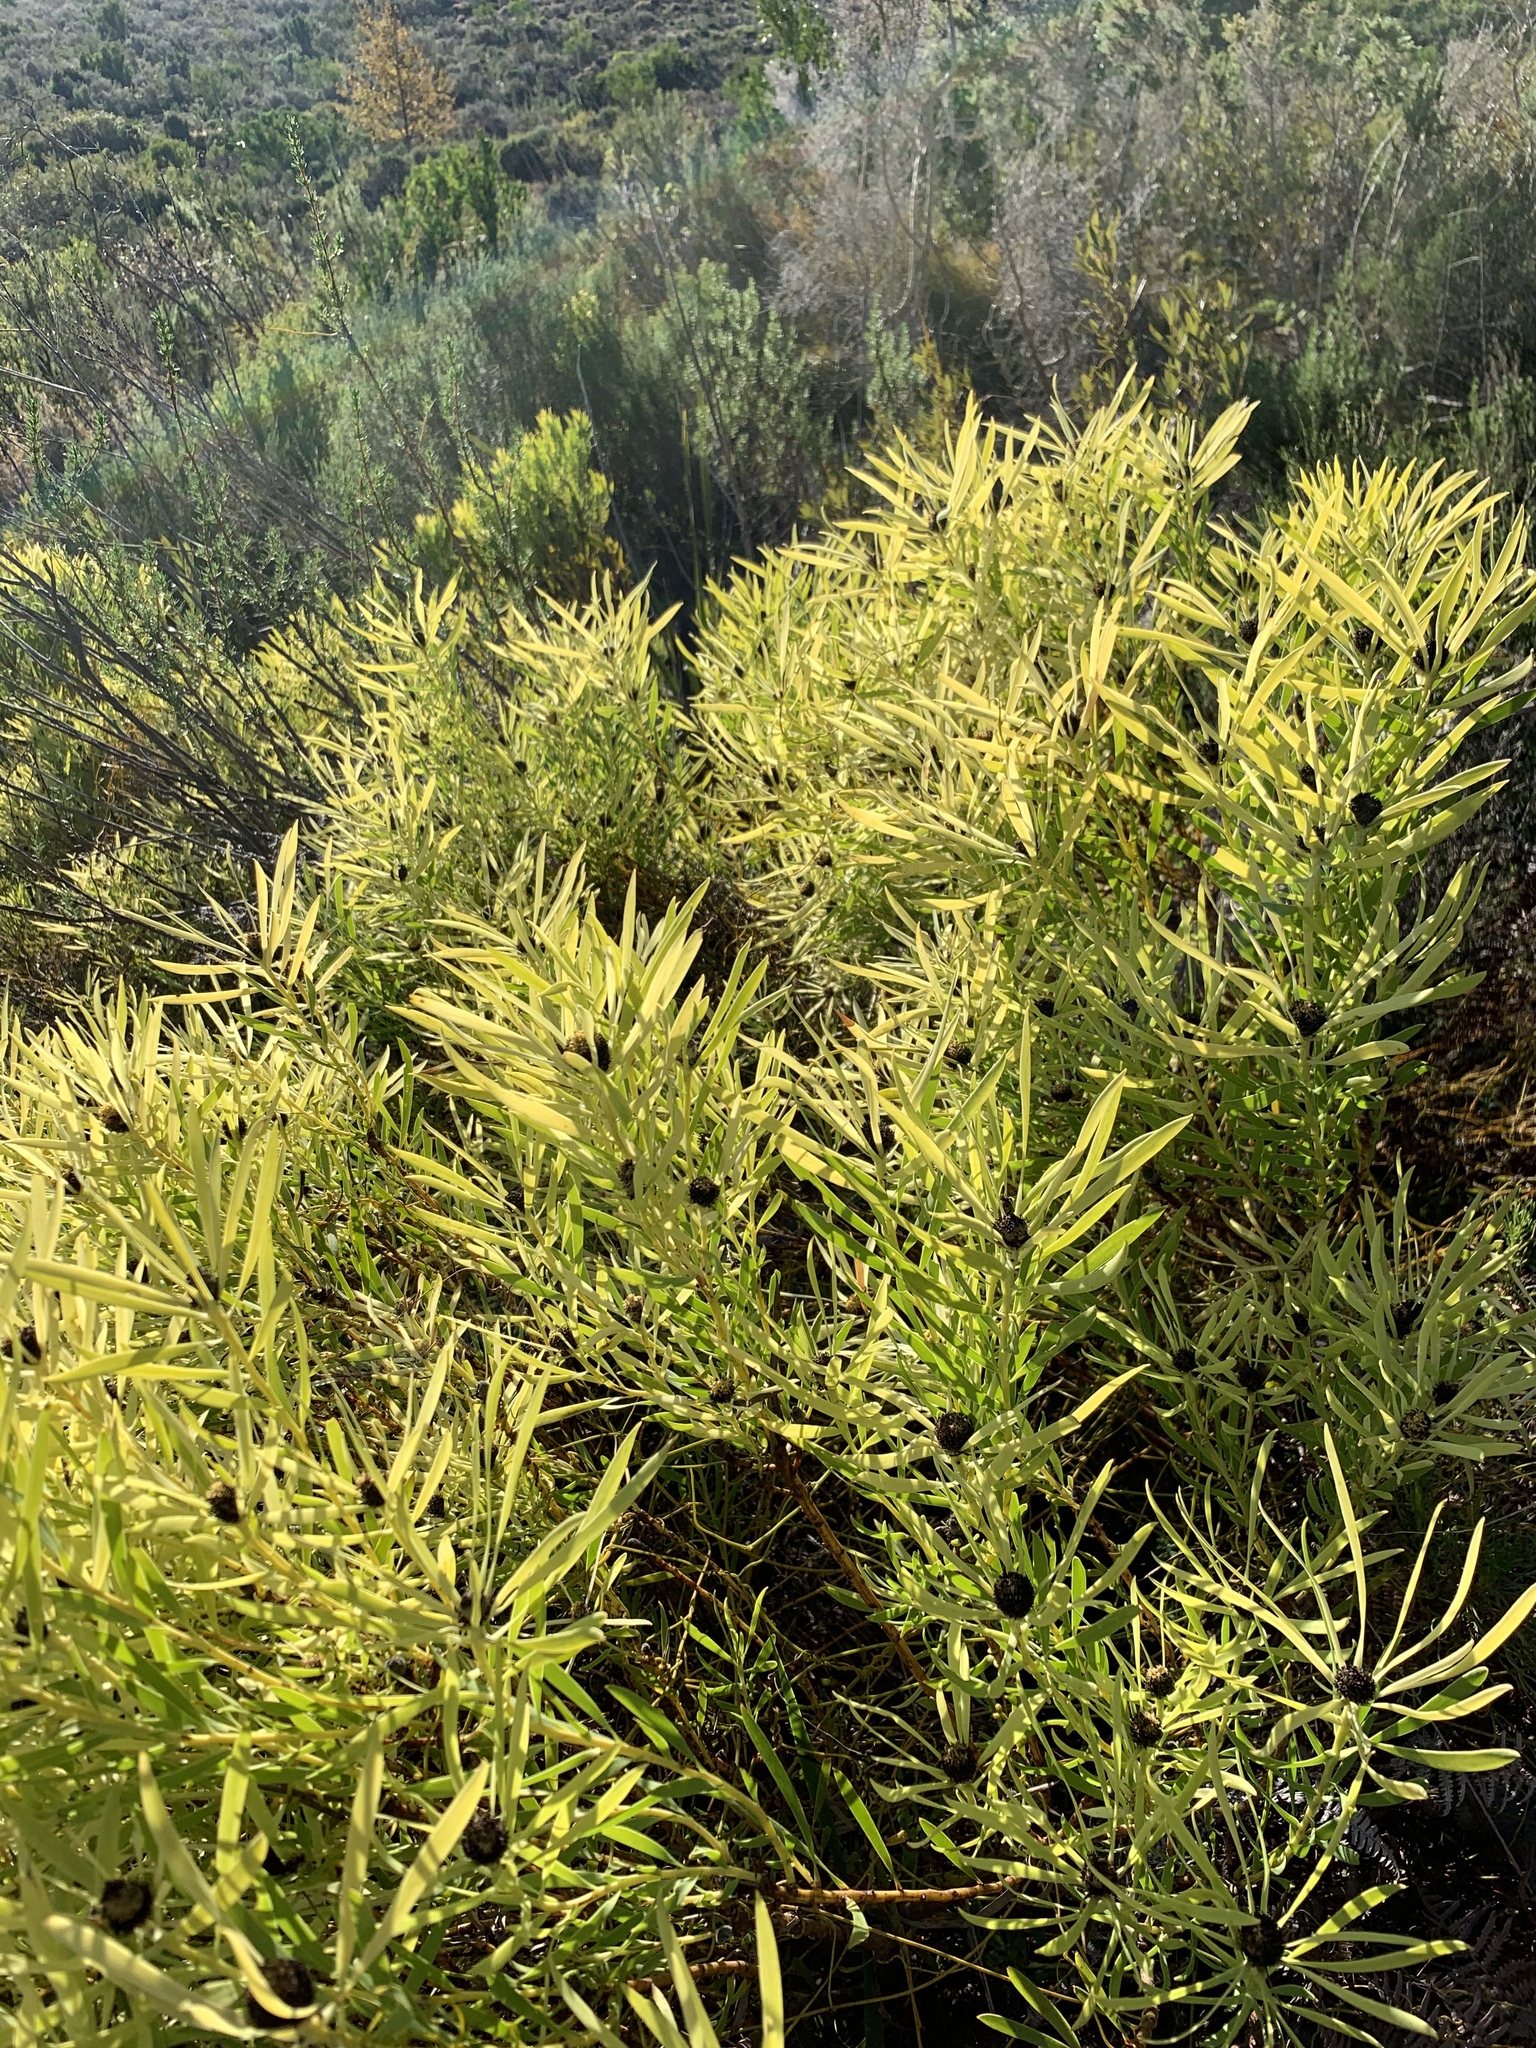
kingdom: Plantae
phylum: Tracheophyta
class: Magnoliopsida
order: Proteales
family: Proteaceae
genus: Leucadendron
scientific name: Leucadendron salignum
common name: Common sunshine conebush
